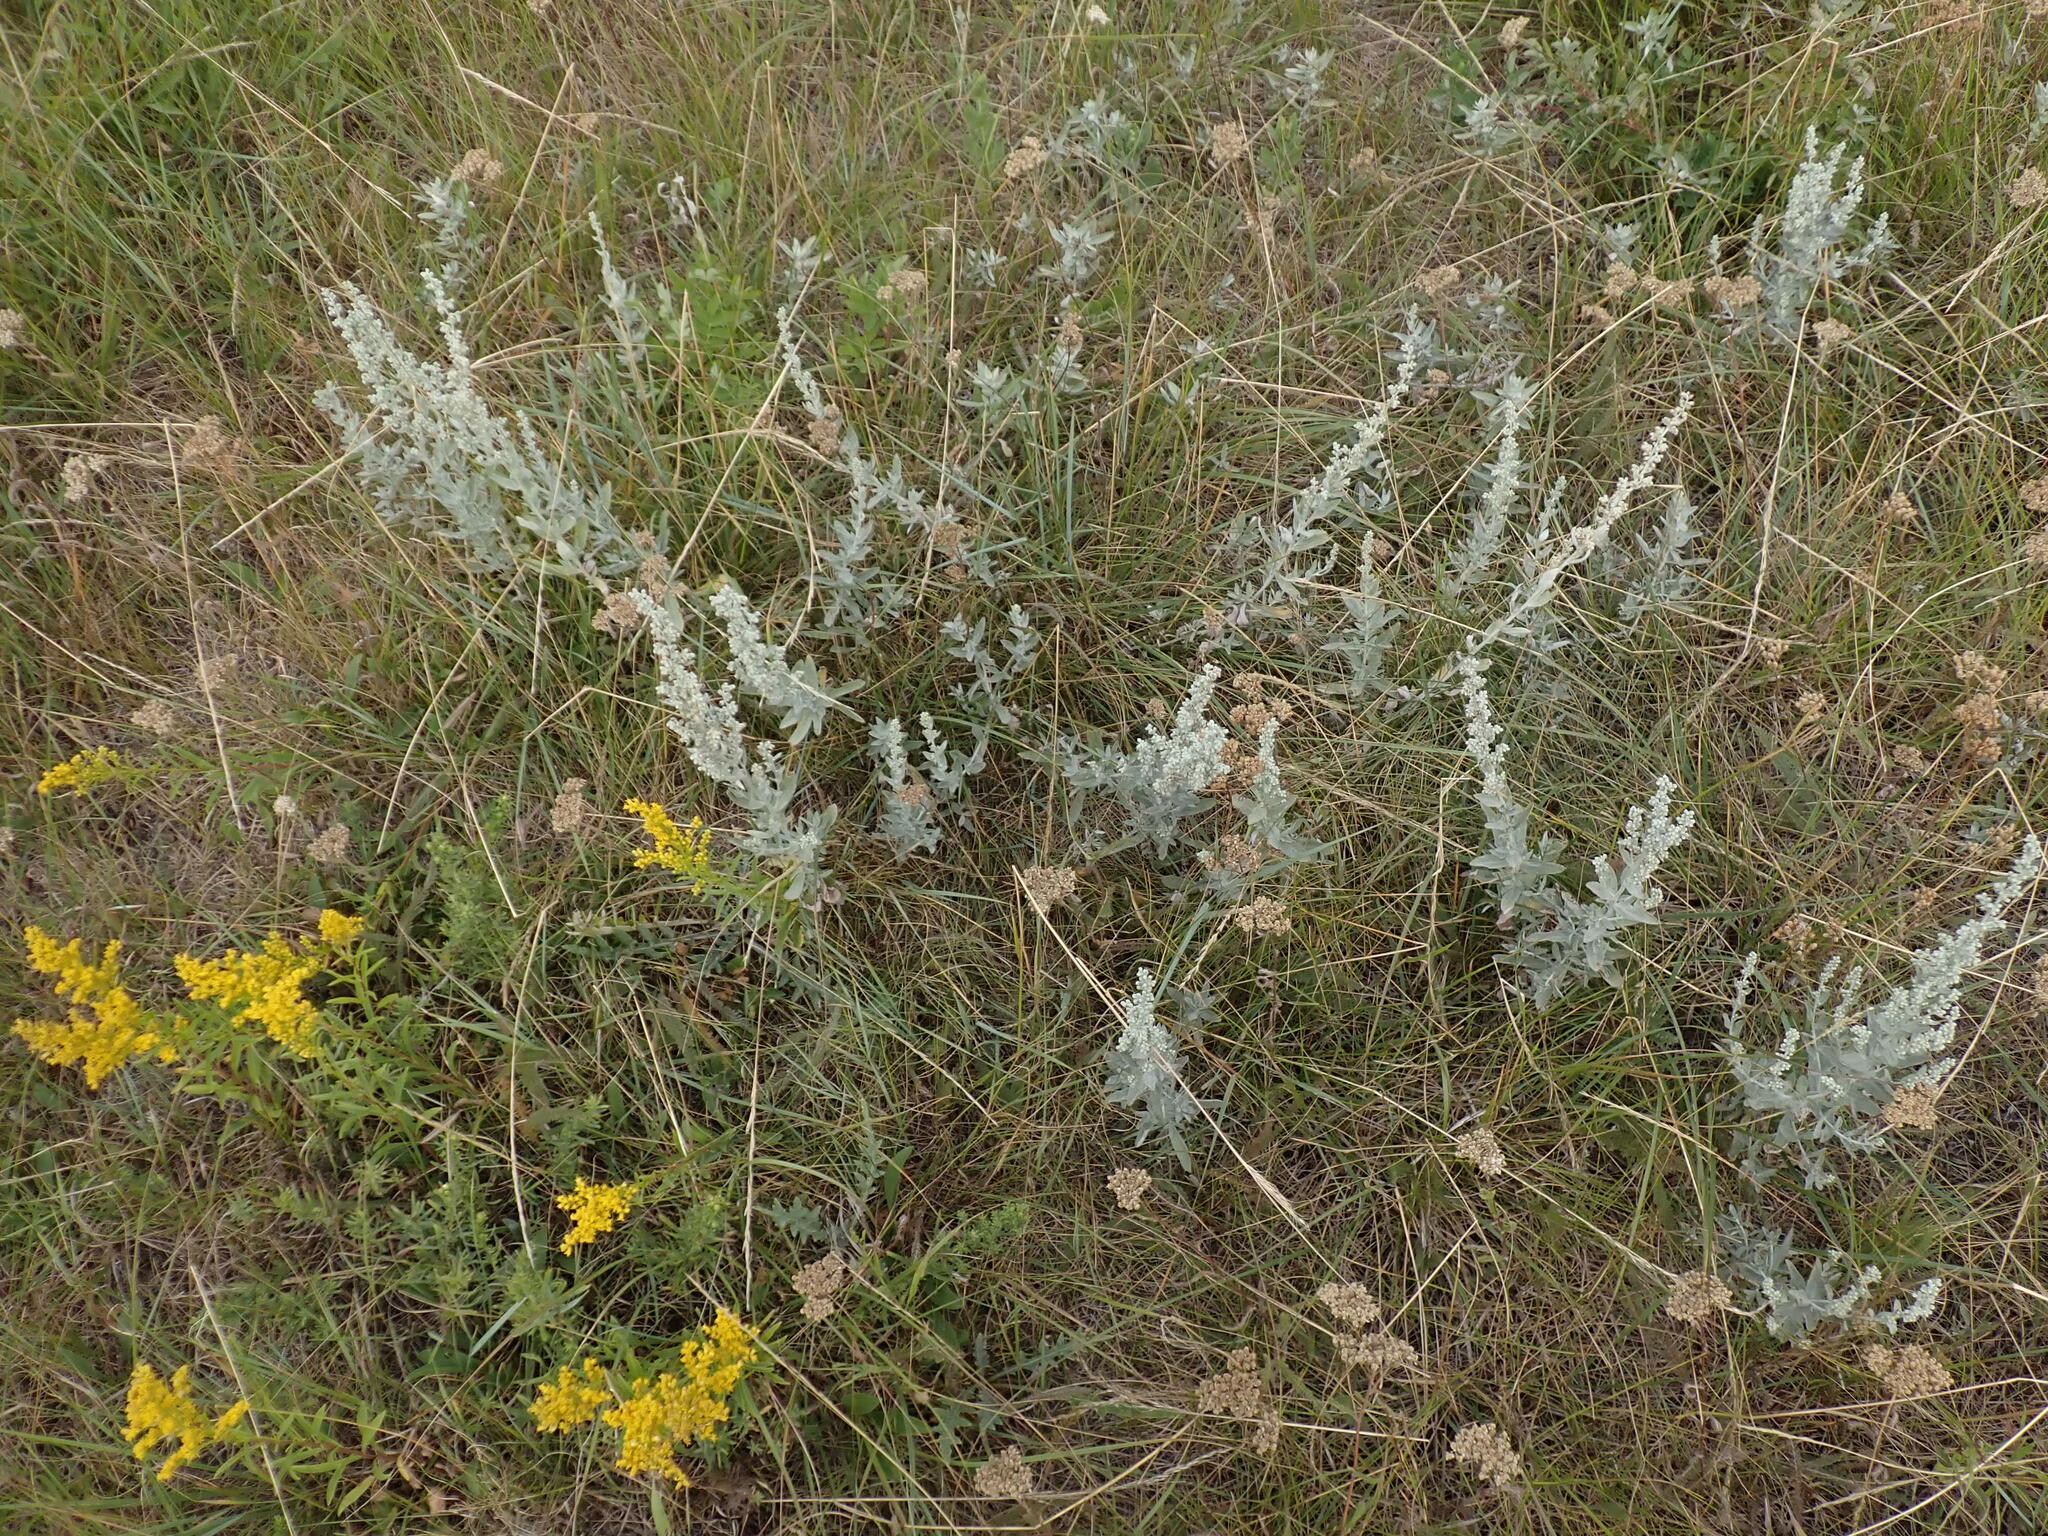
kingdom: Plantae
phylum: Tracheophyta
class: Magnoliopsida
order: Asterales
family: Asteraceae
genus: Artemisia
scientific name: Artemisia ludoviciana
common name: Western mugwort
